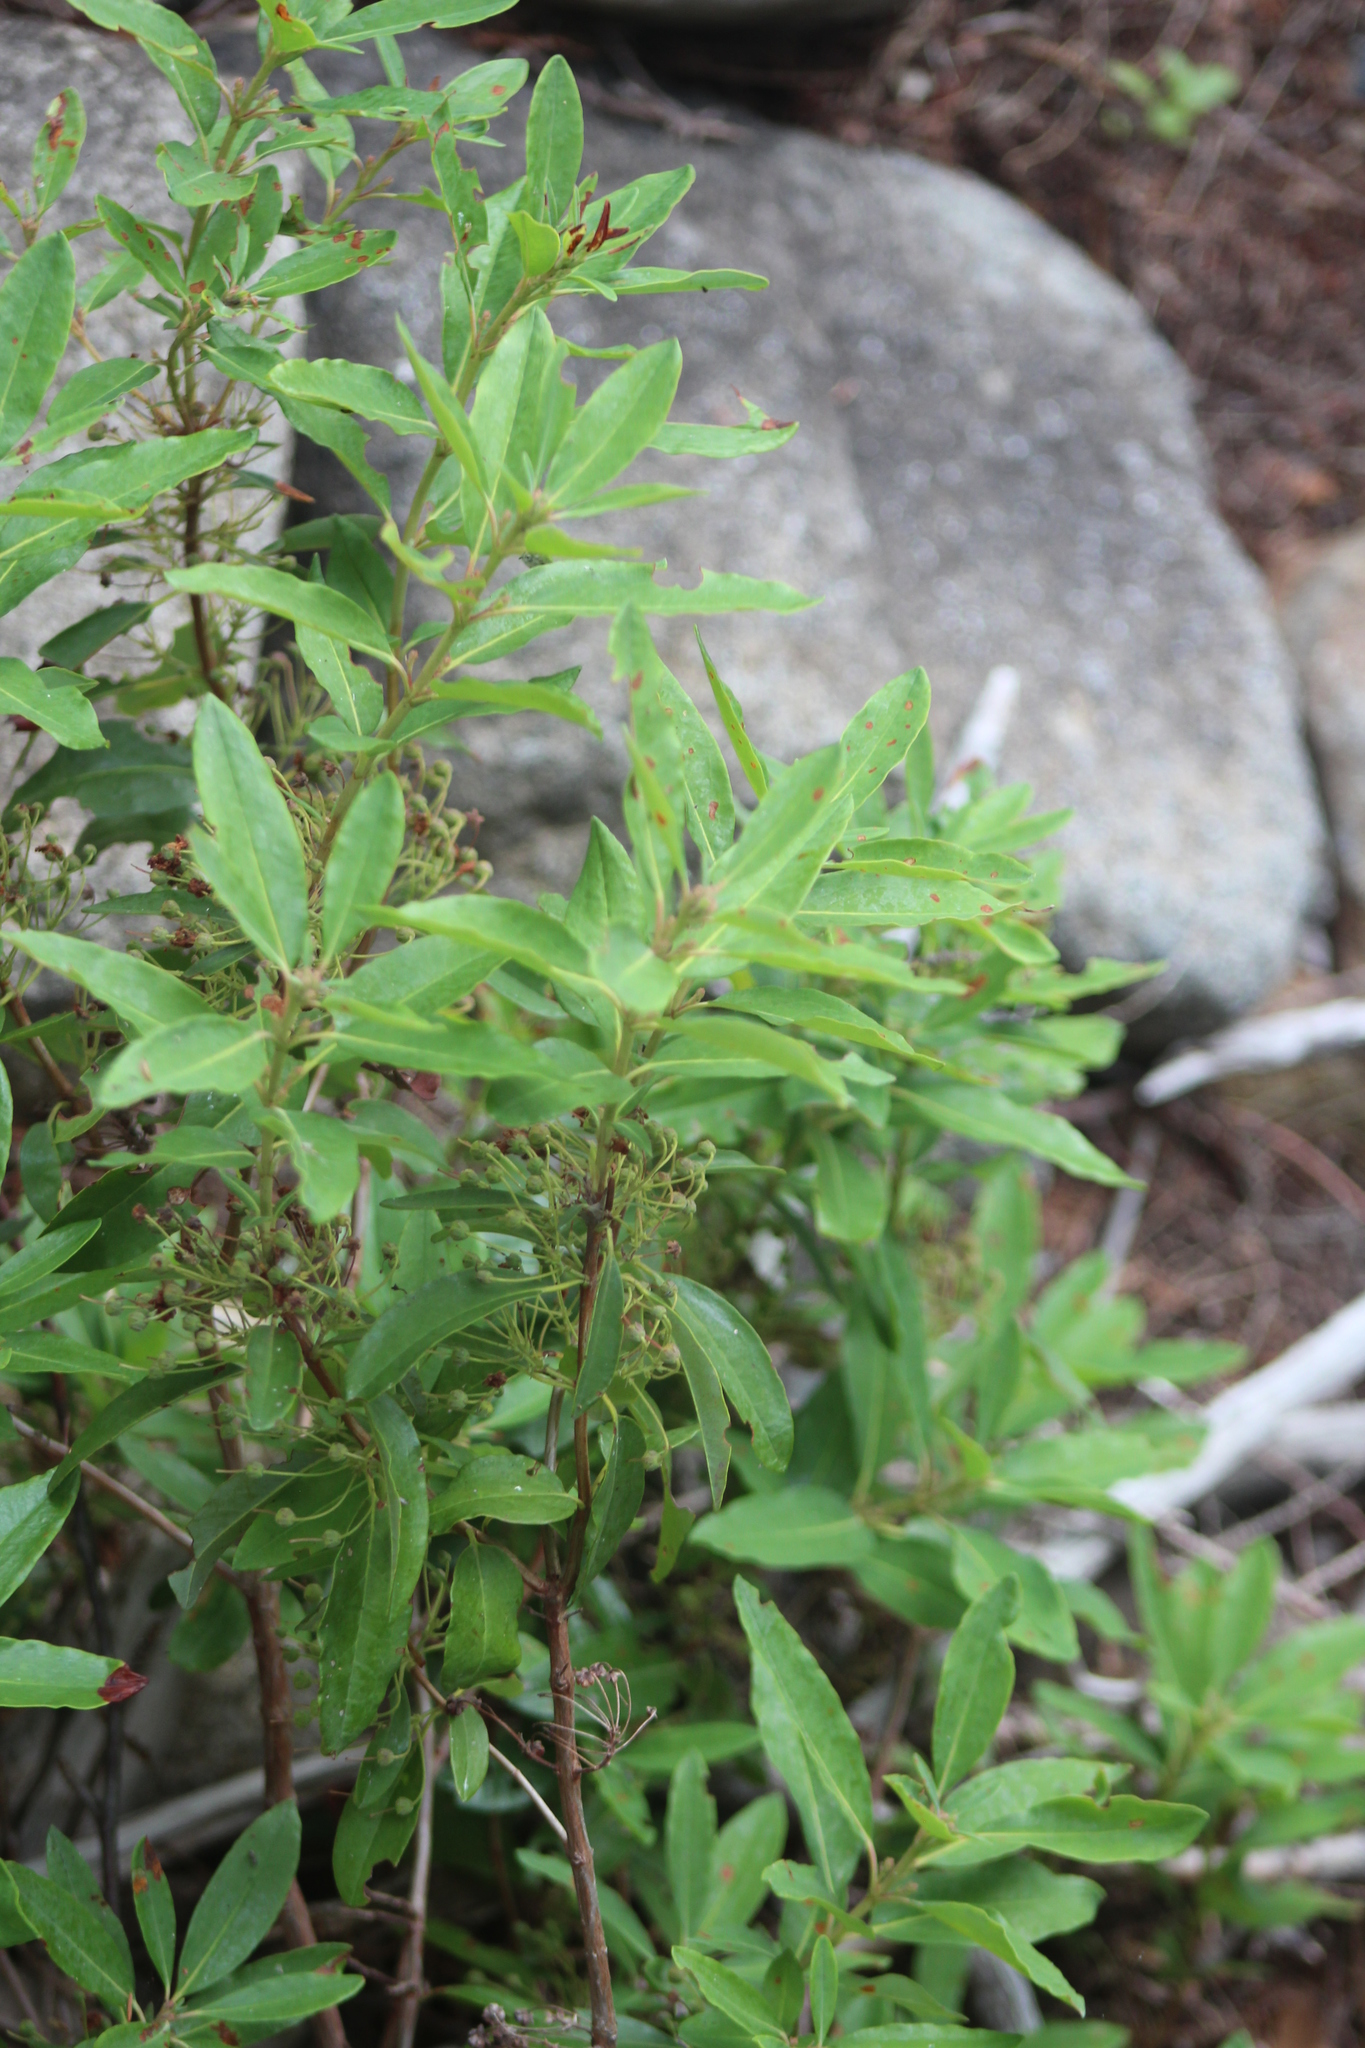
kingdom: Plantae
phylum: Tracheophyta
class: Magnoliopsida
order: Ericales
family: Ericaceae
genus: Kalmia
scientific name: Kalmia angustifolia
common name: Sheep-laurel
